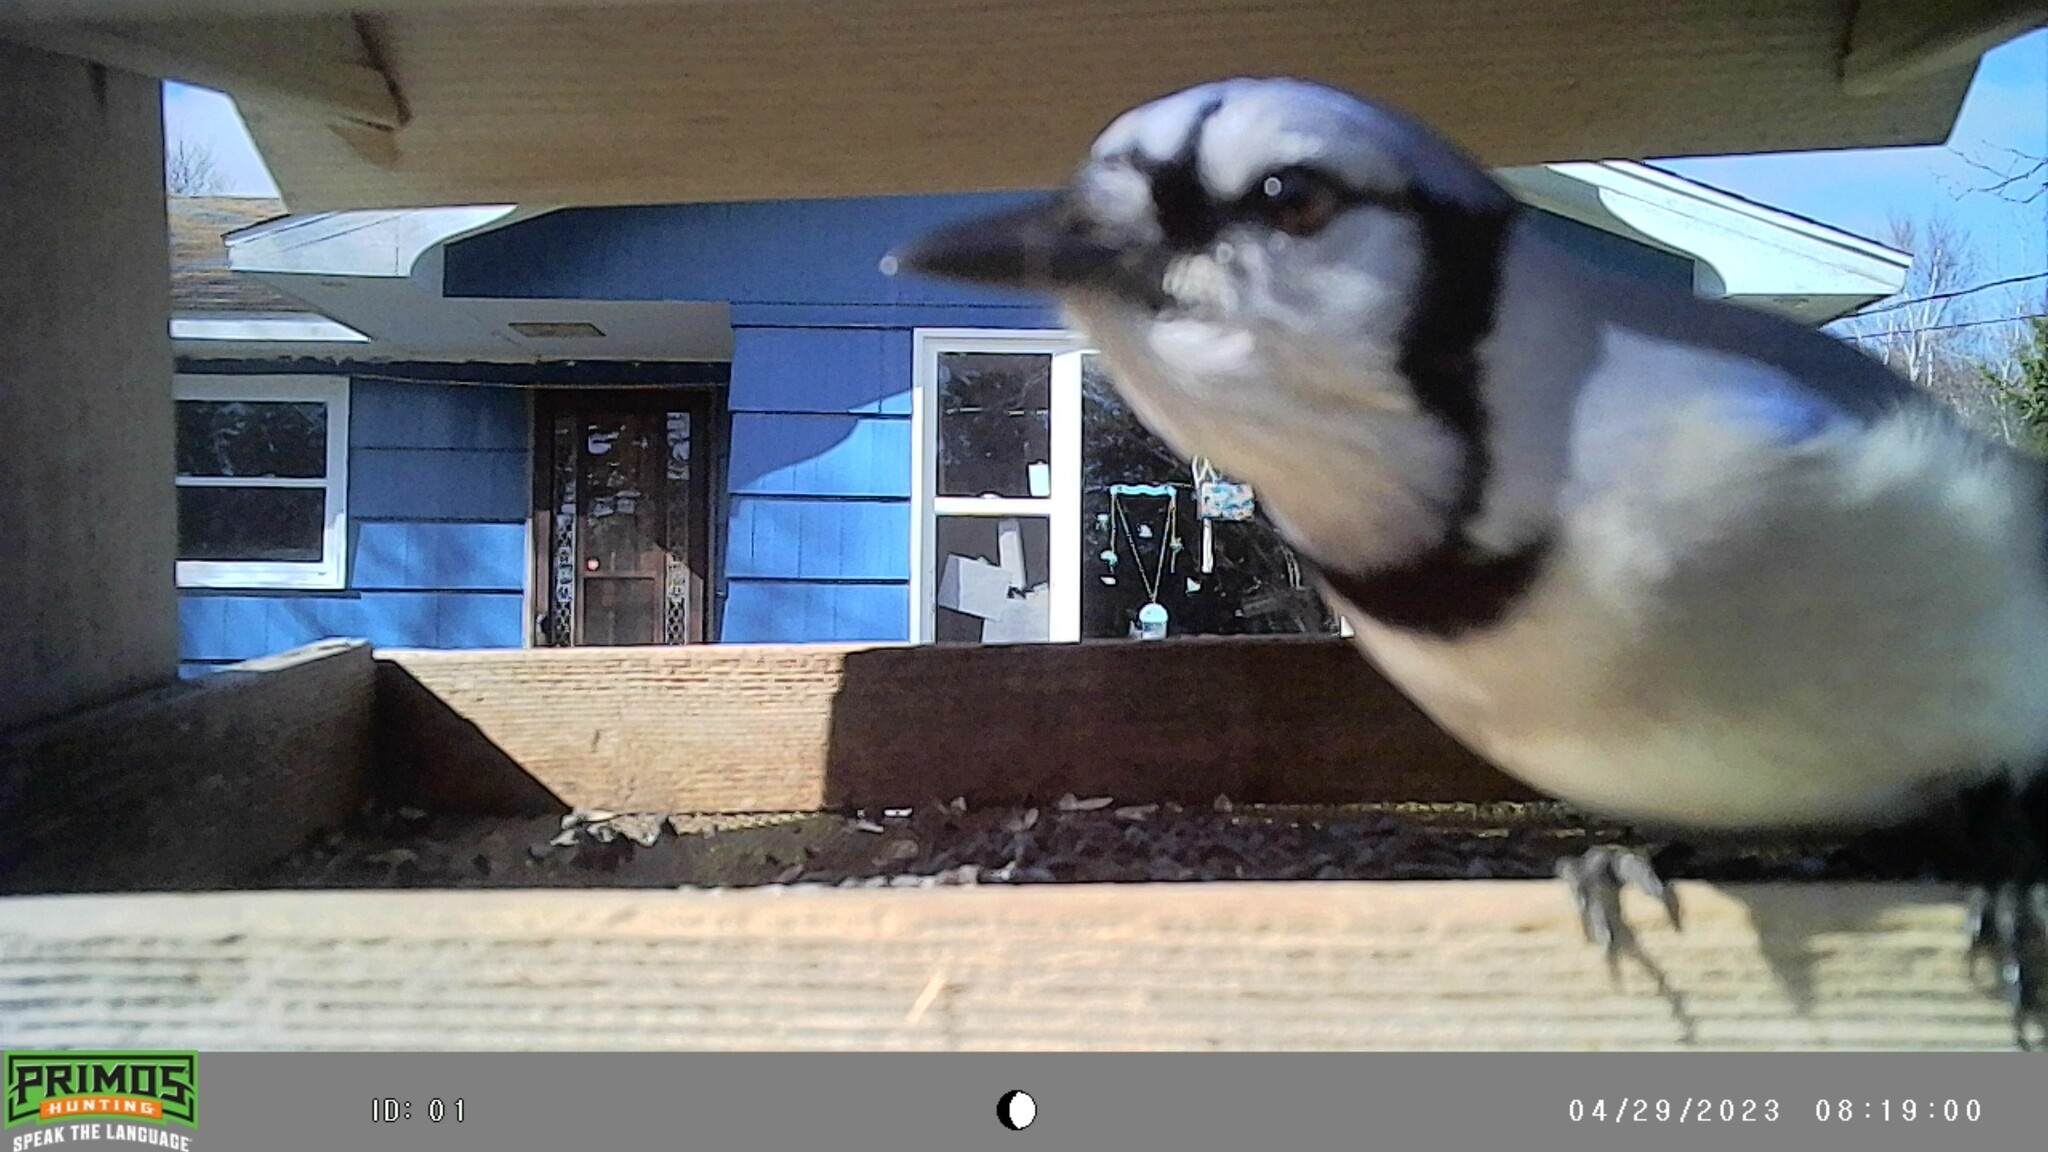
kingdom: Animalia
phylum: Chordata
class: Aves
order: Passeriformes
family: Corvidae
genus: Cyanocitta
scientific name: Cyanocitta cristata
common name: Blue jay
